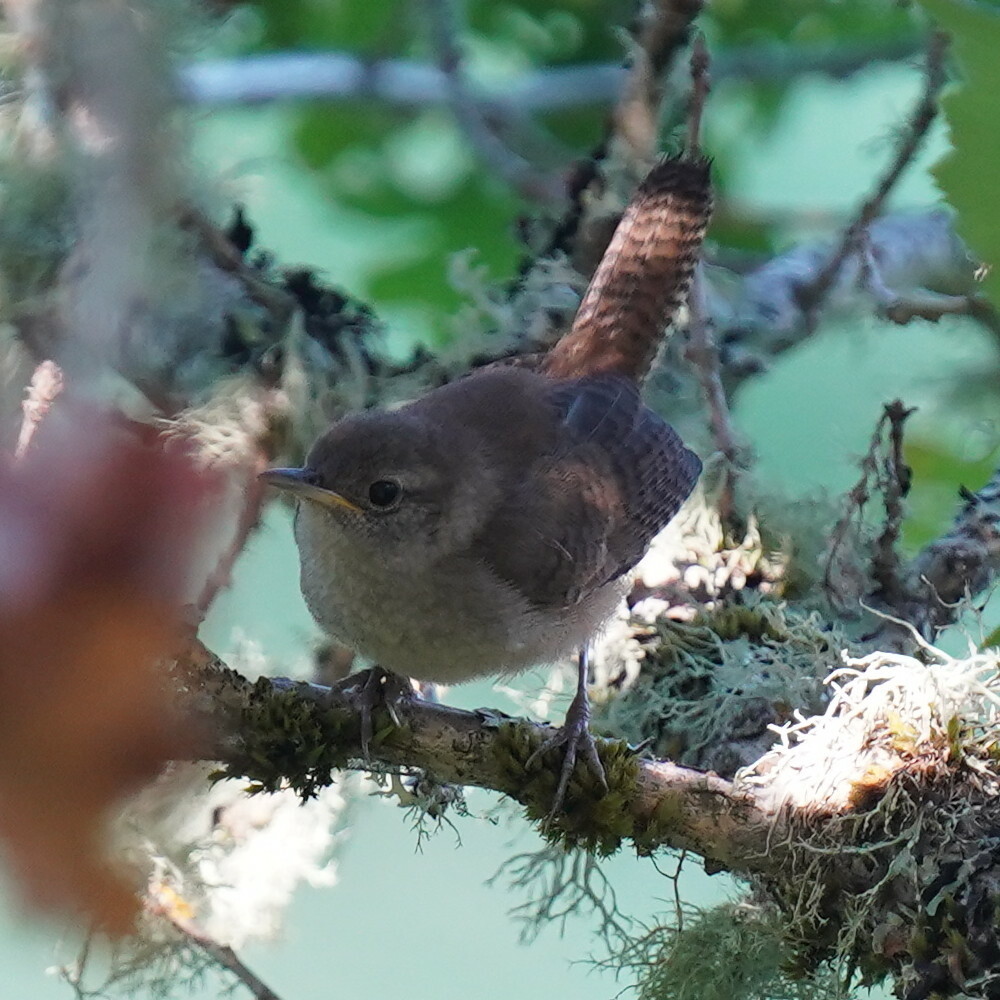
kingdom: Animalia
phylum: Chordata
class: Aves
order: Passeriformes
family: Troglodytidae
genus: Troglodytes
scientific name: Troglodytes aedon
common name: House wren
